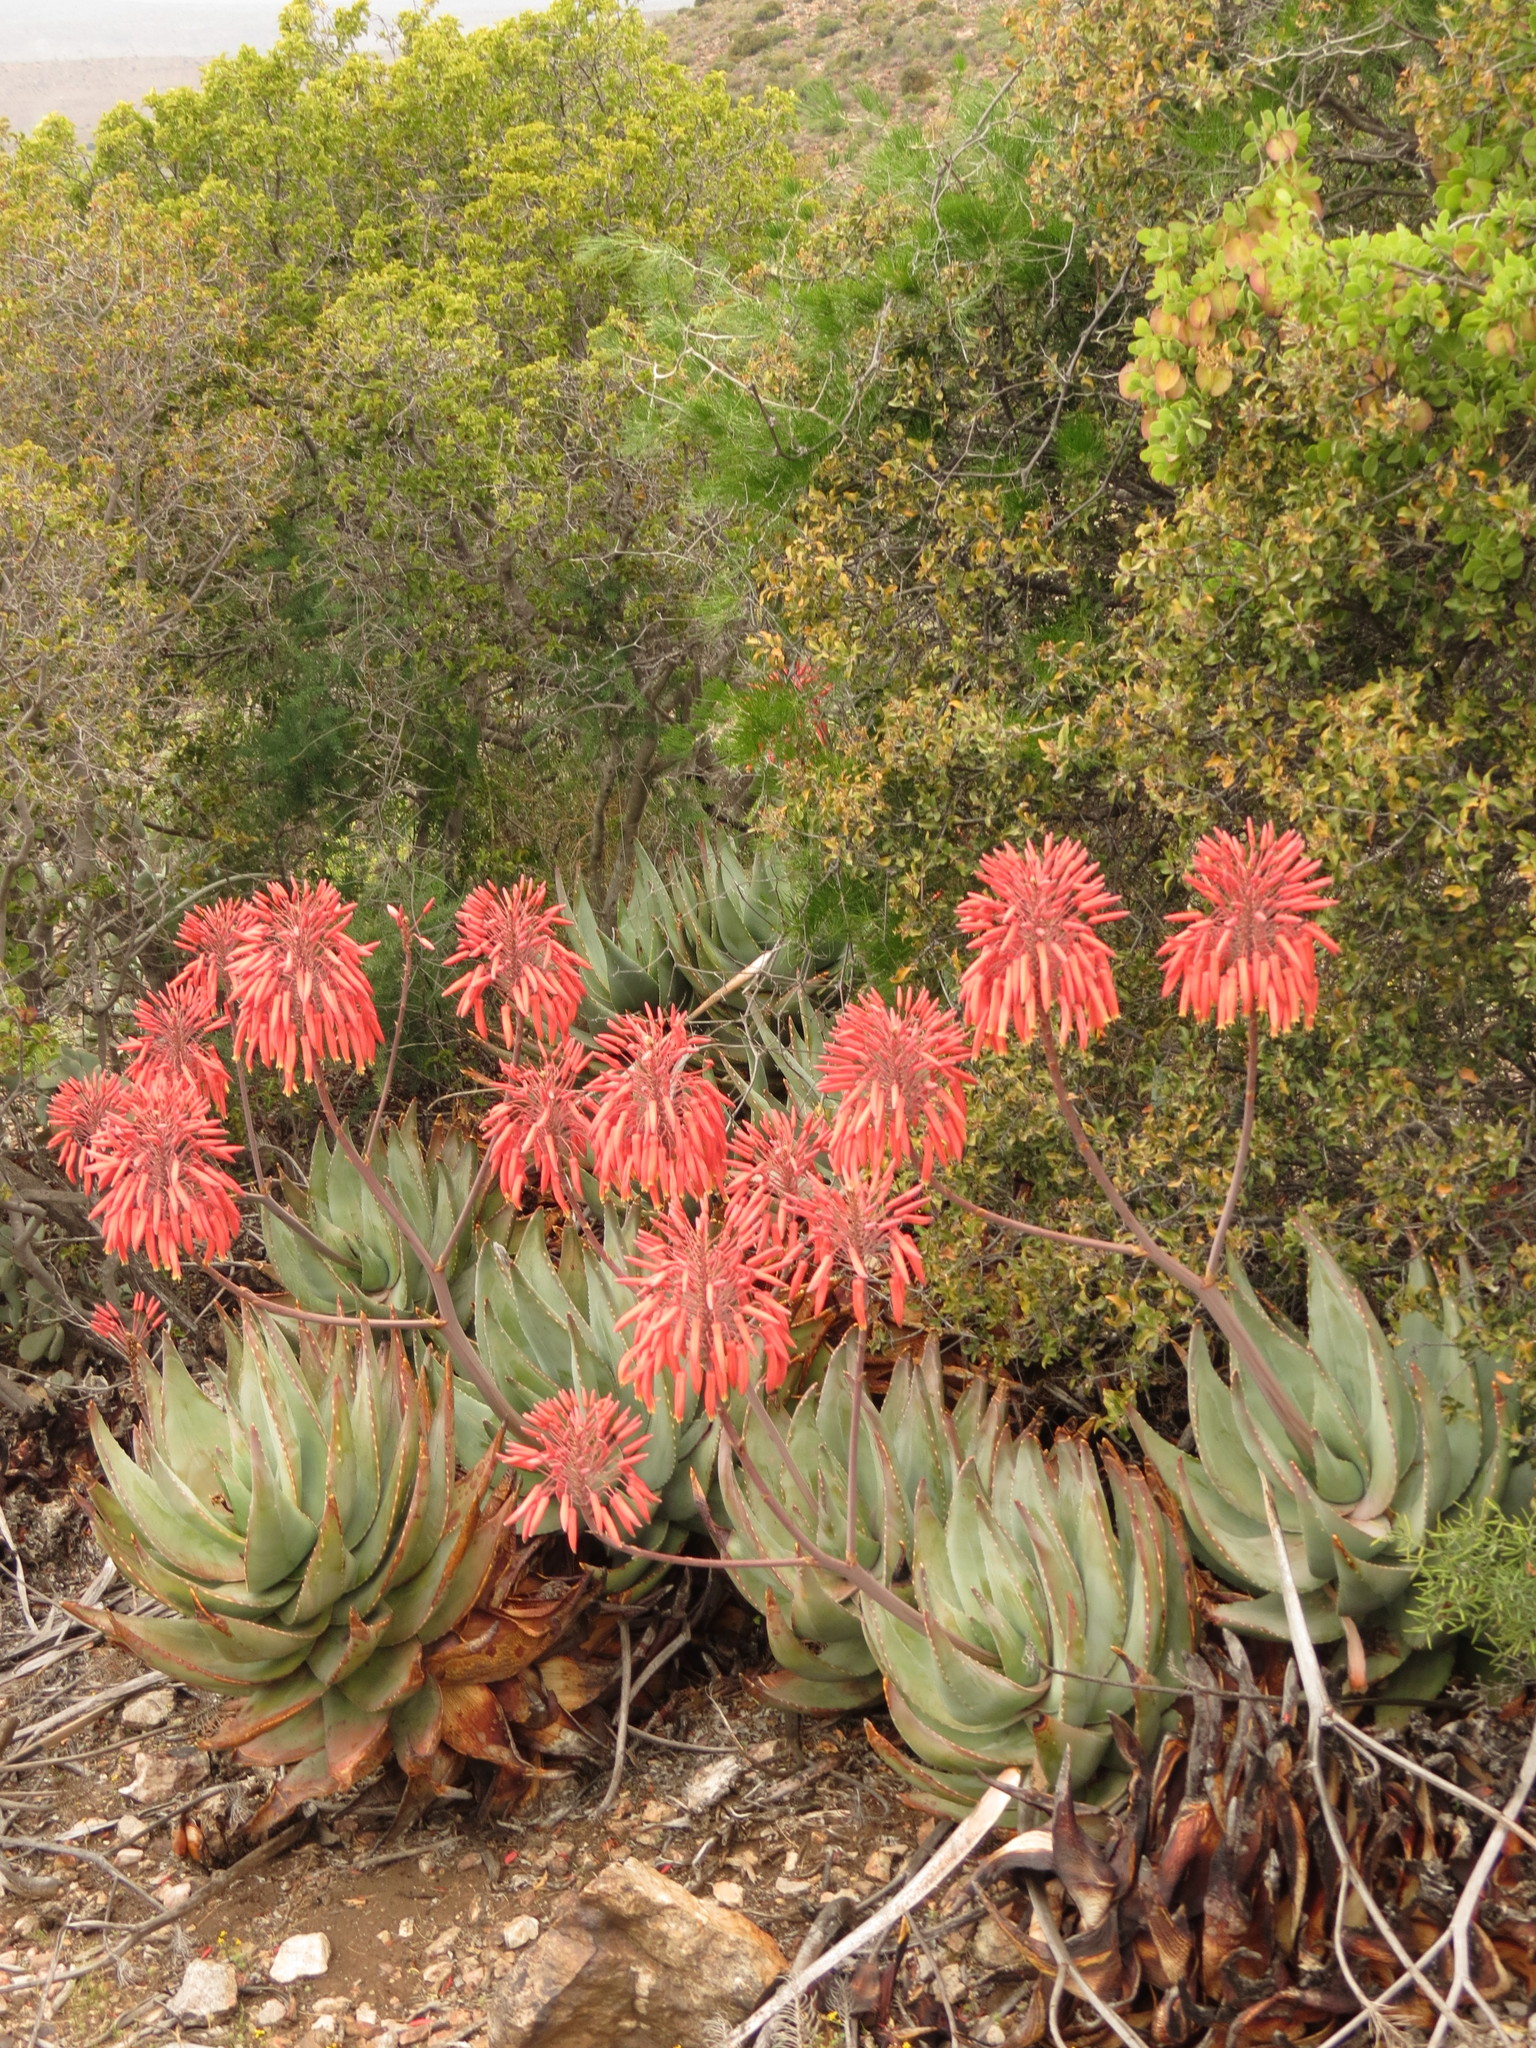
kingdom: Plantae
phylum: Tracheophyta
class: Liliopsida
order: Asparagales
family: Asphodelaceae
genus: Aloe
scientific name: Aloe comptonii
